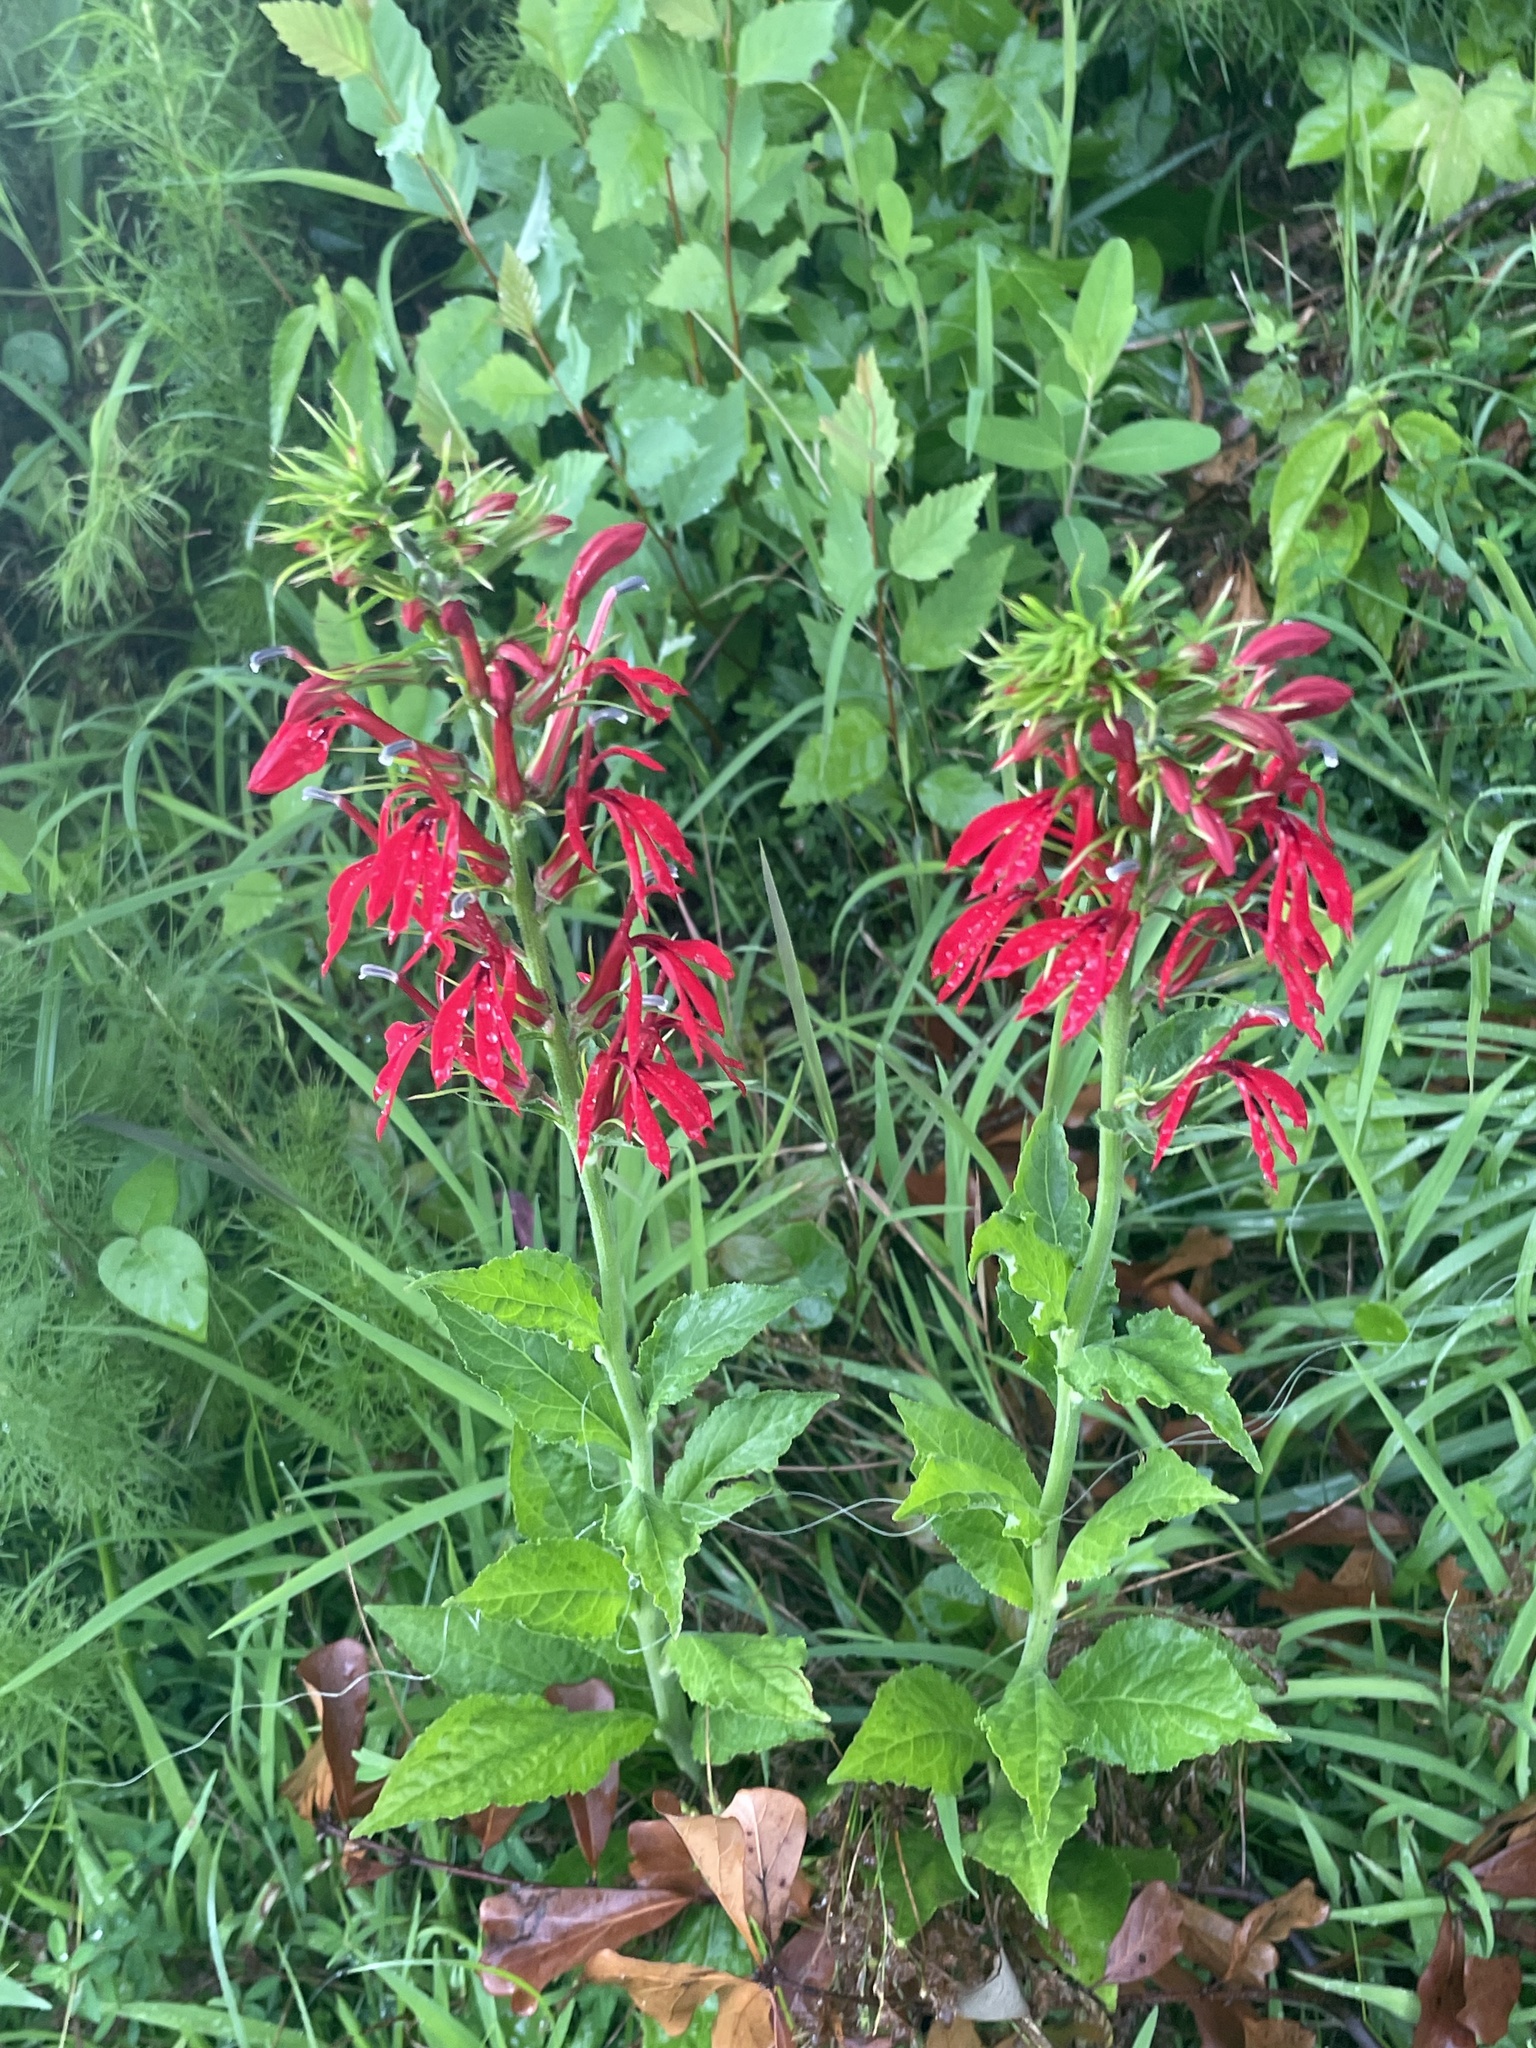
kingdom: Plantae
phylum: Tracheophyta
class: Magnoliopsida
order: Asterales
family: Campanulaceae
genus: Lobelia
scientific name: Lobelia cardinalis
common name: Cardinal flower
